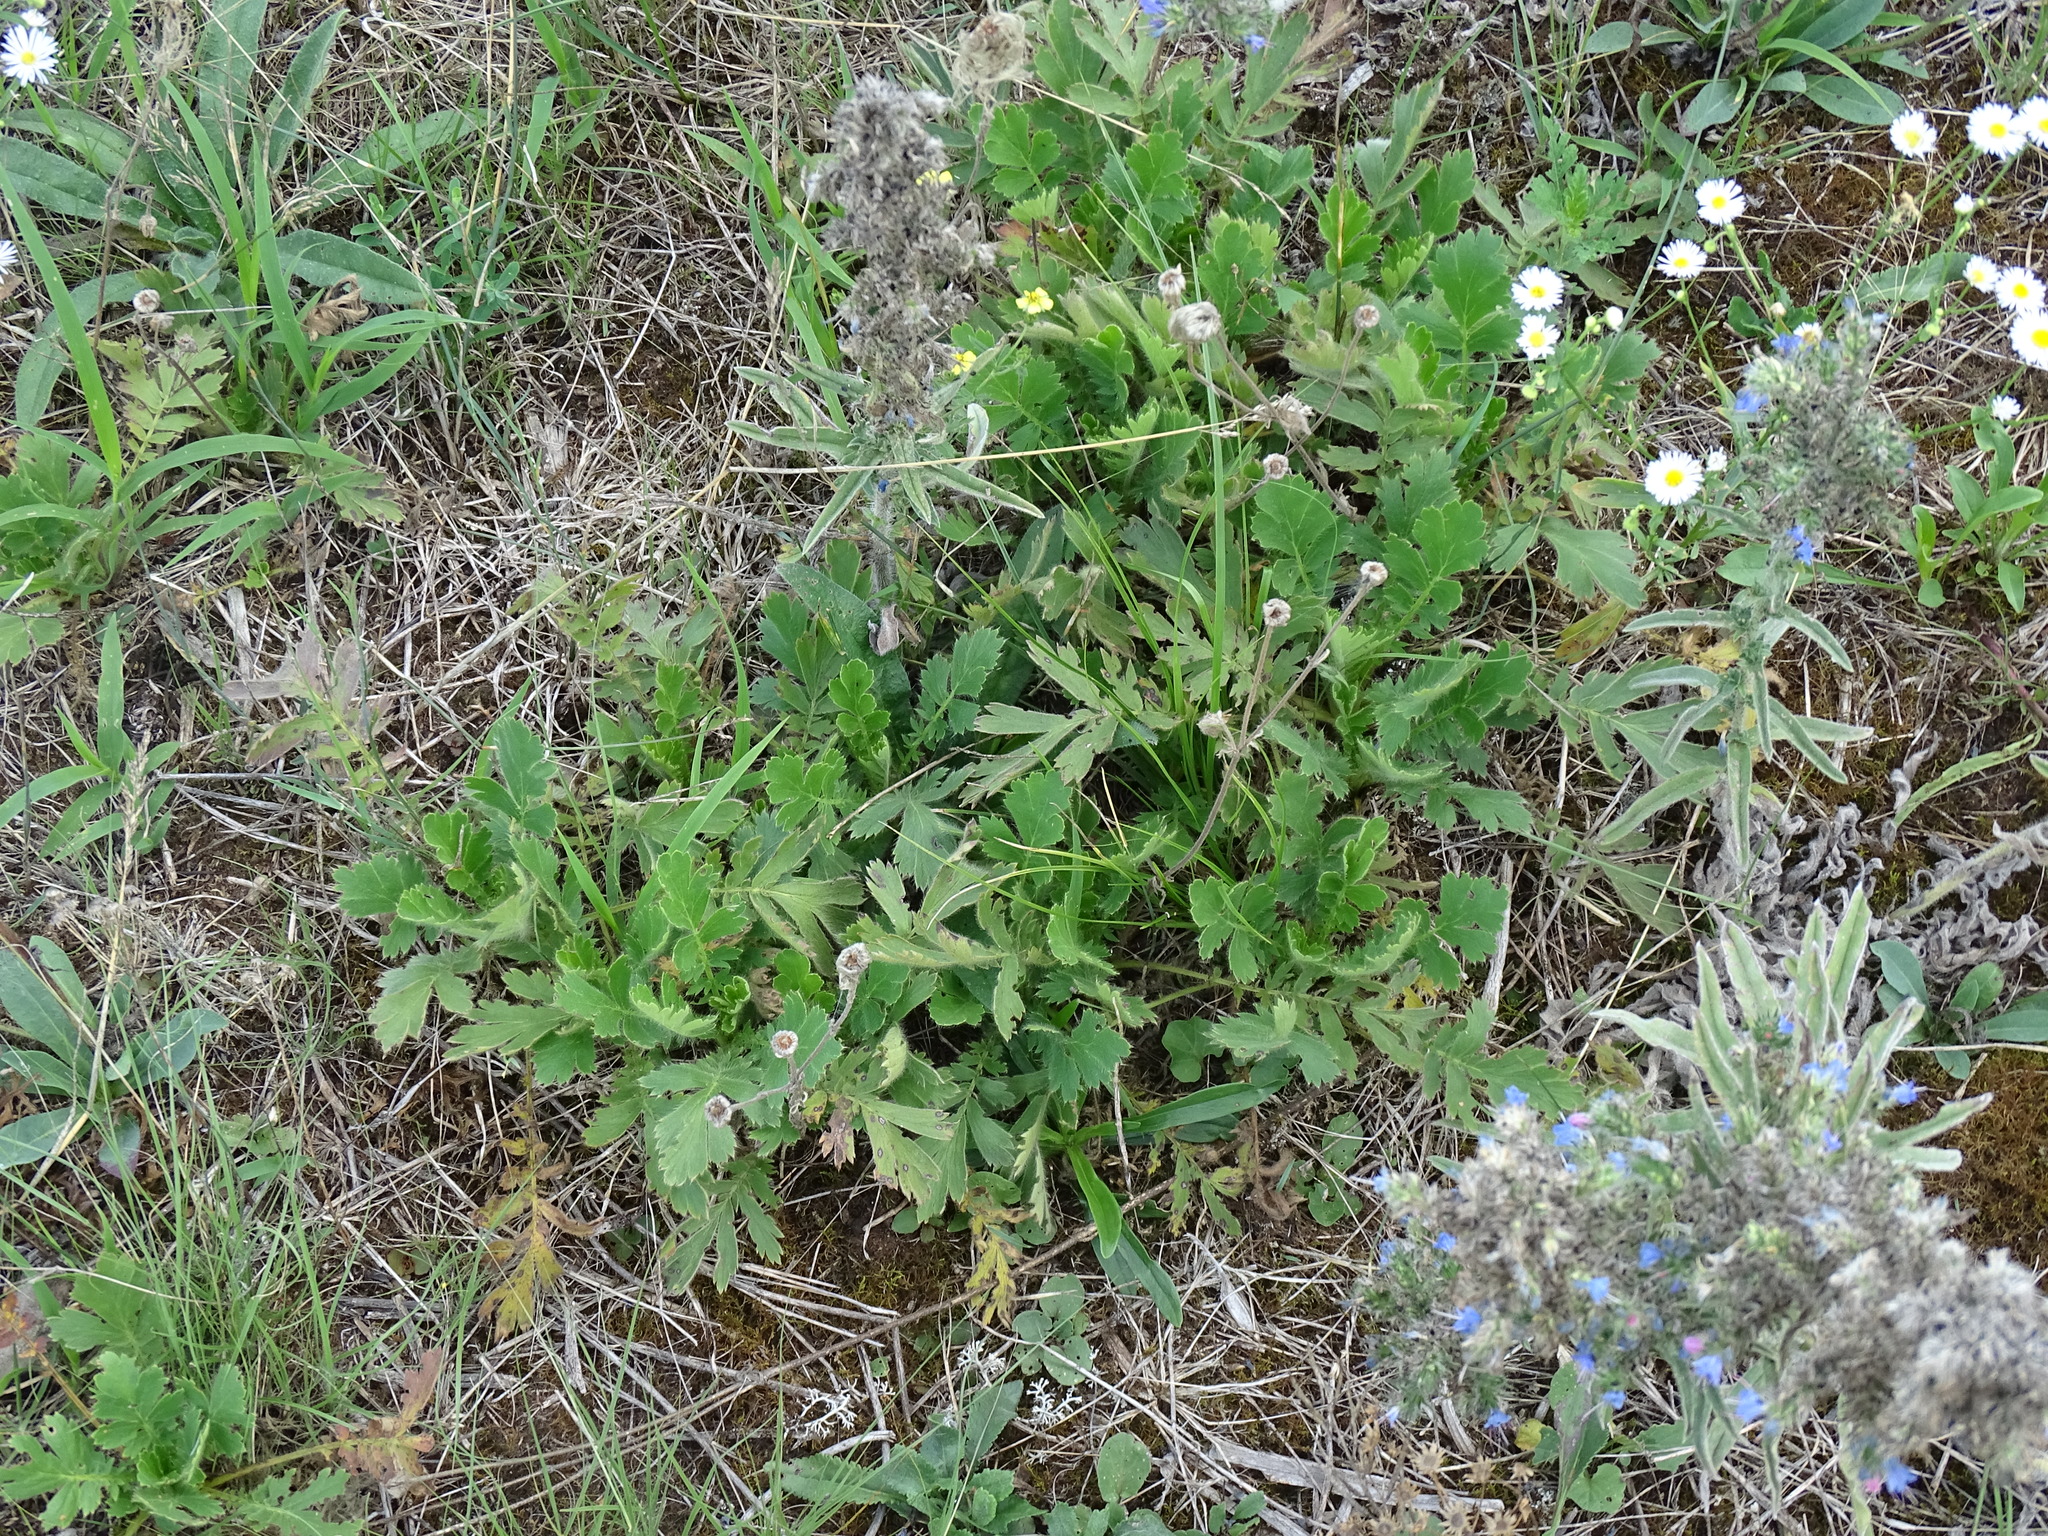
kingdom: Plantae
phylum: Tracheophyta
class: Magnoliopsida
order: Rosales
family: Rosaceae
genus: Geum
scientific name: Geum triflorum
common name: Old man's whiskers
